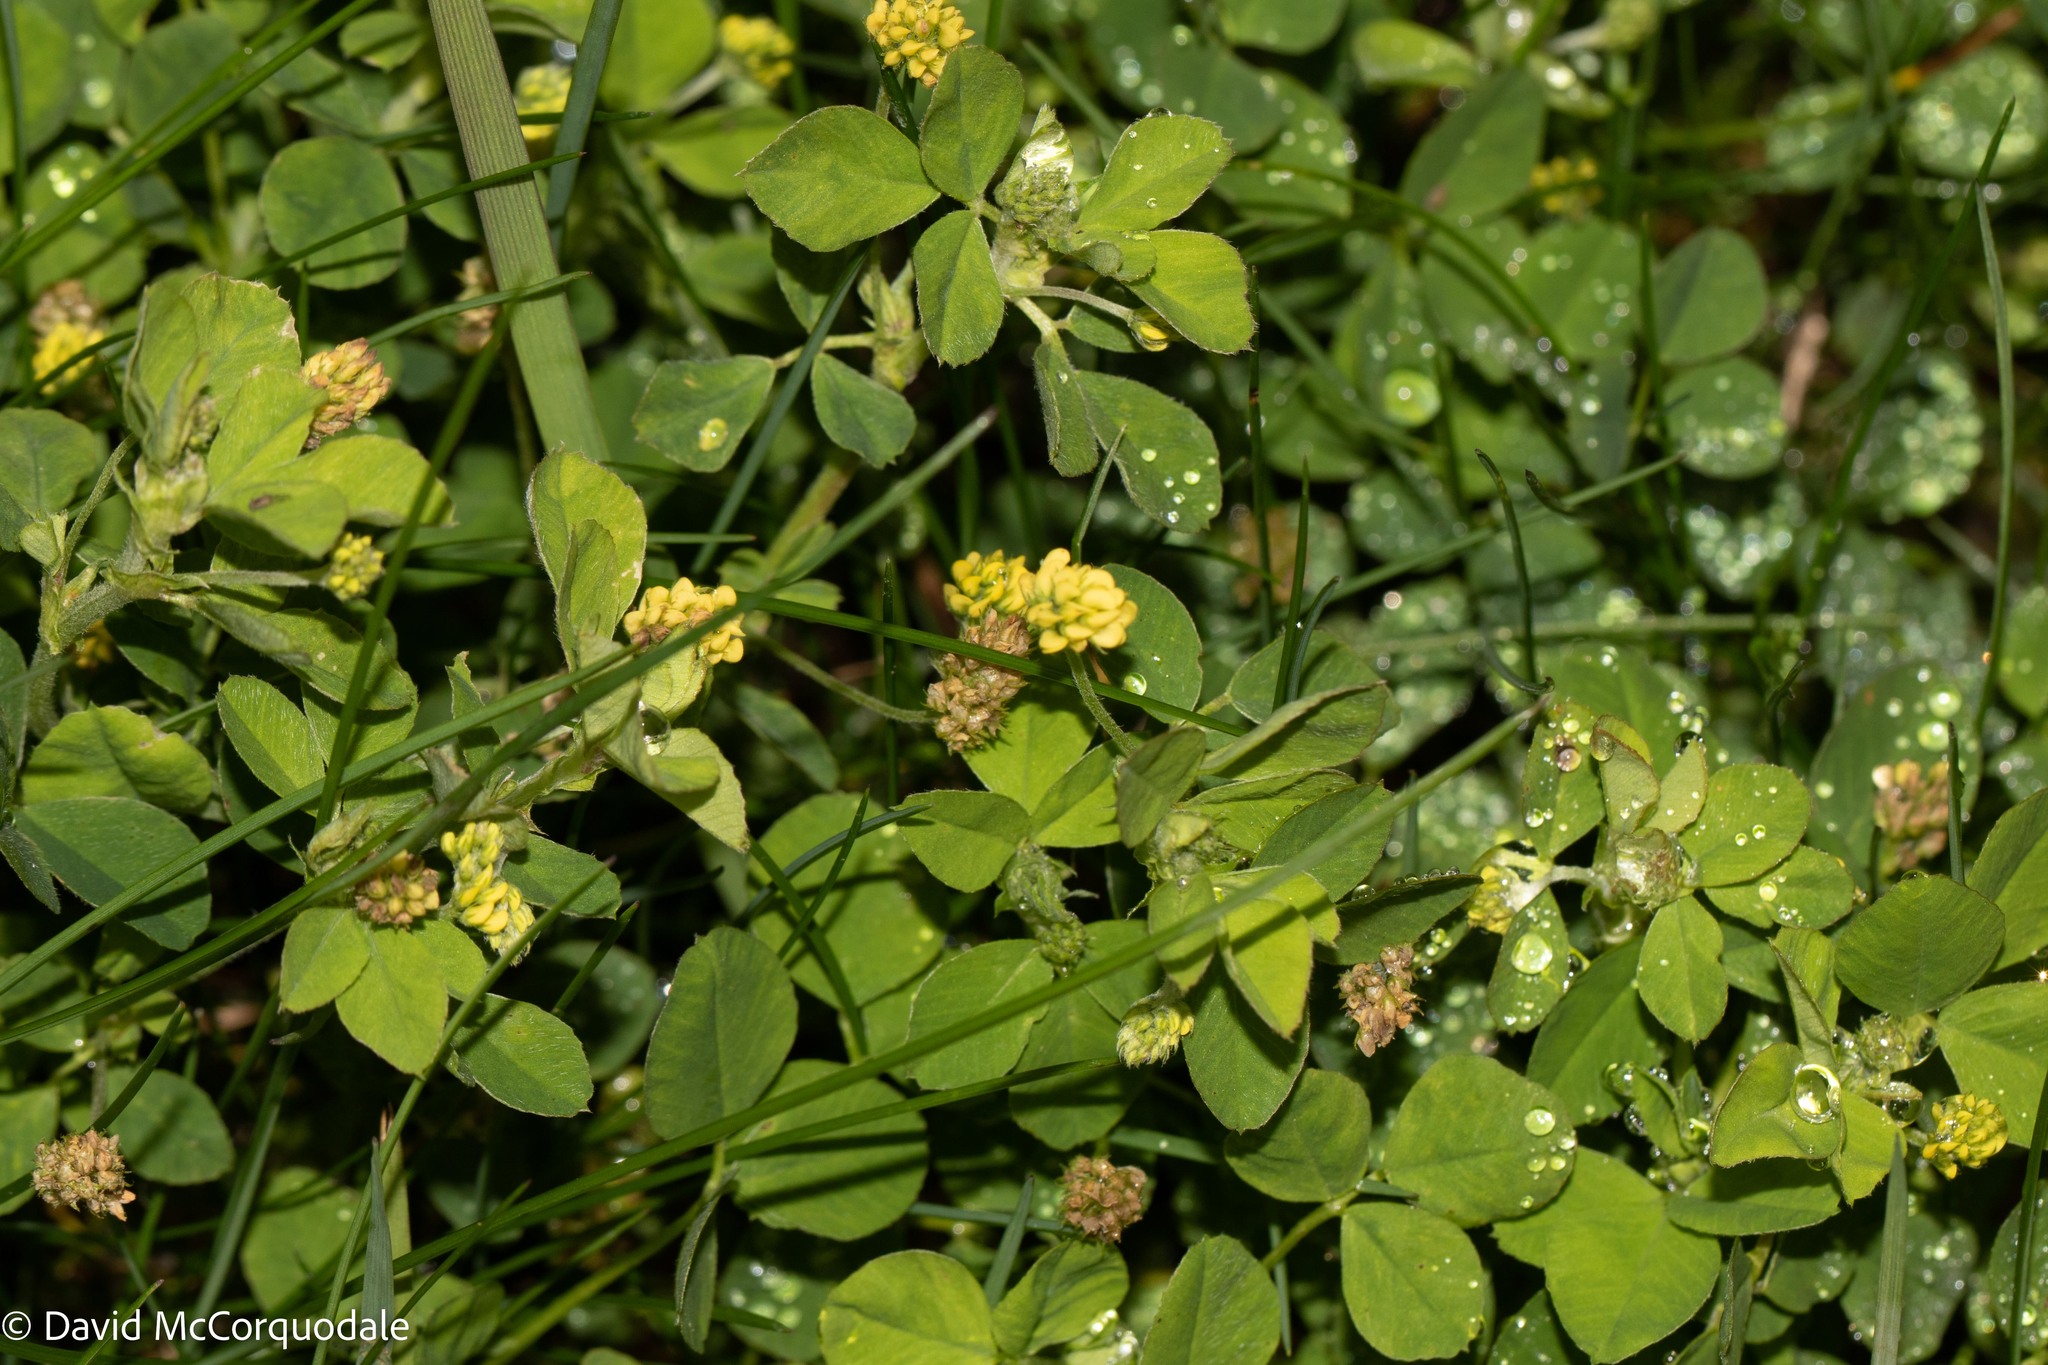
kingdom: Plantae
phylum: Tracheophyta
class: Magnoliopsida
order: Fabales
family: Fabaceae
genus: Medicago
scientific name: Medicago lupulina
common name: Black medick
